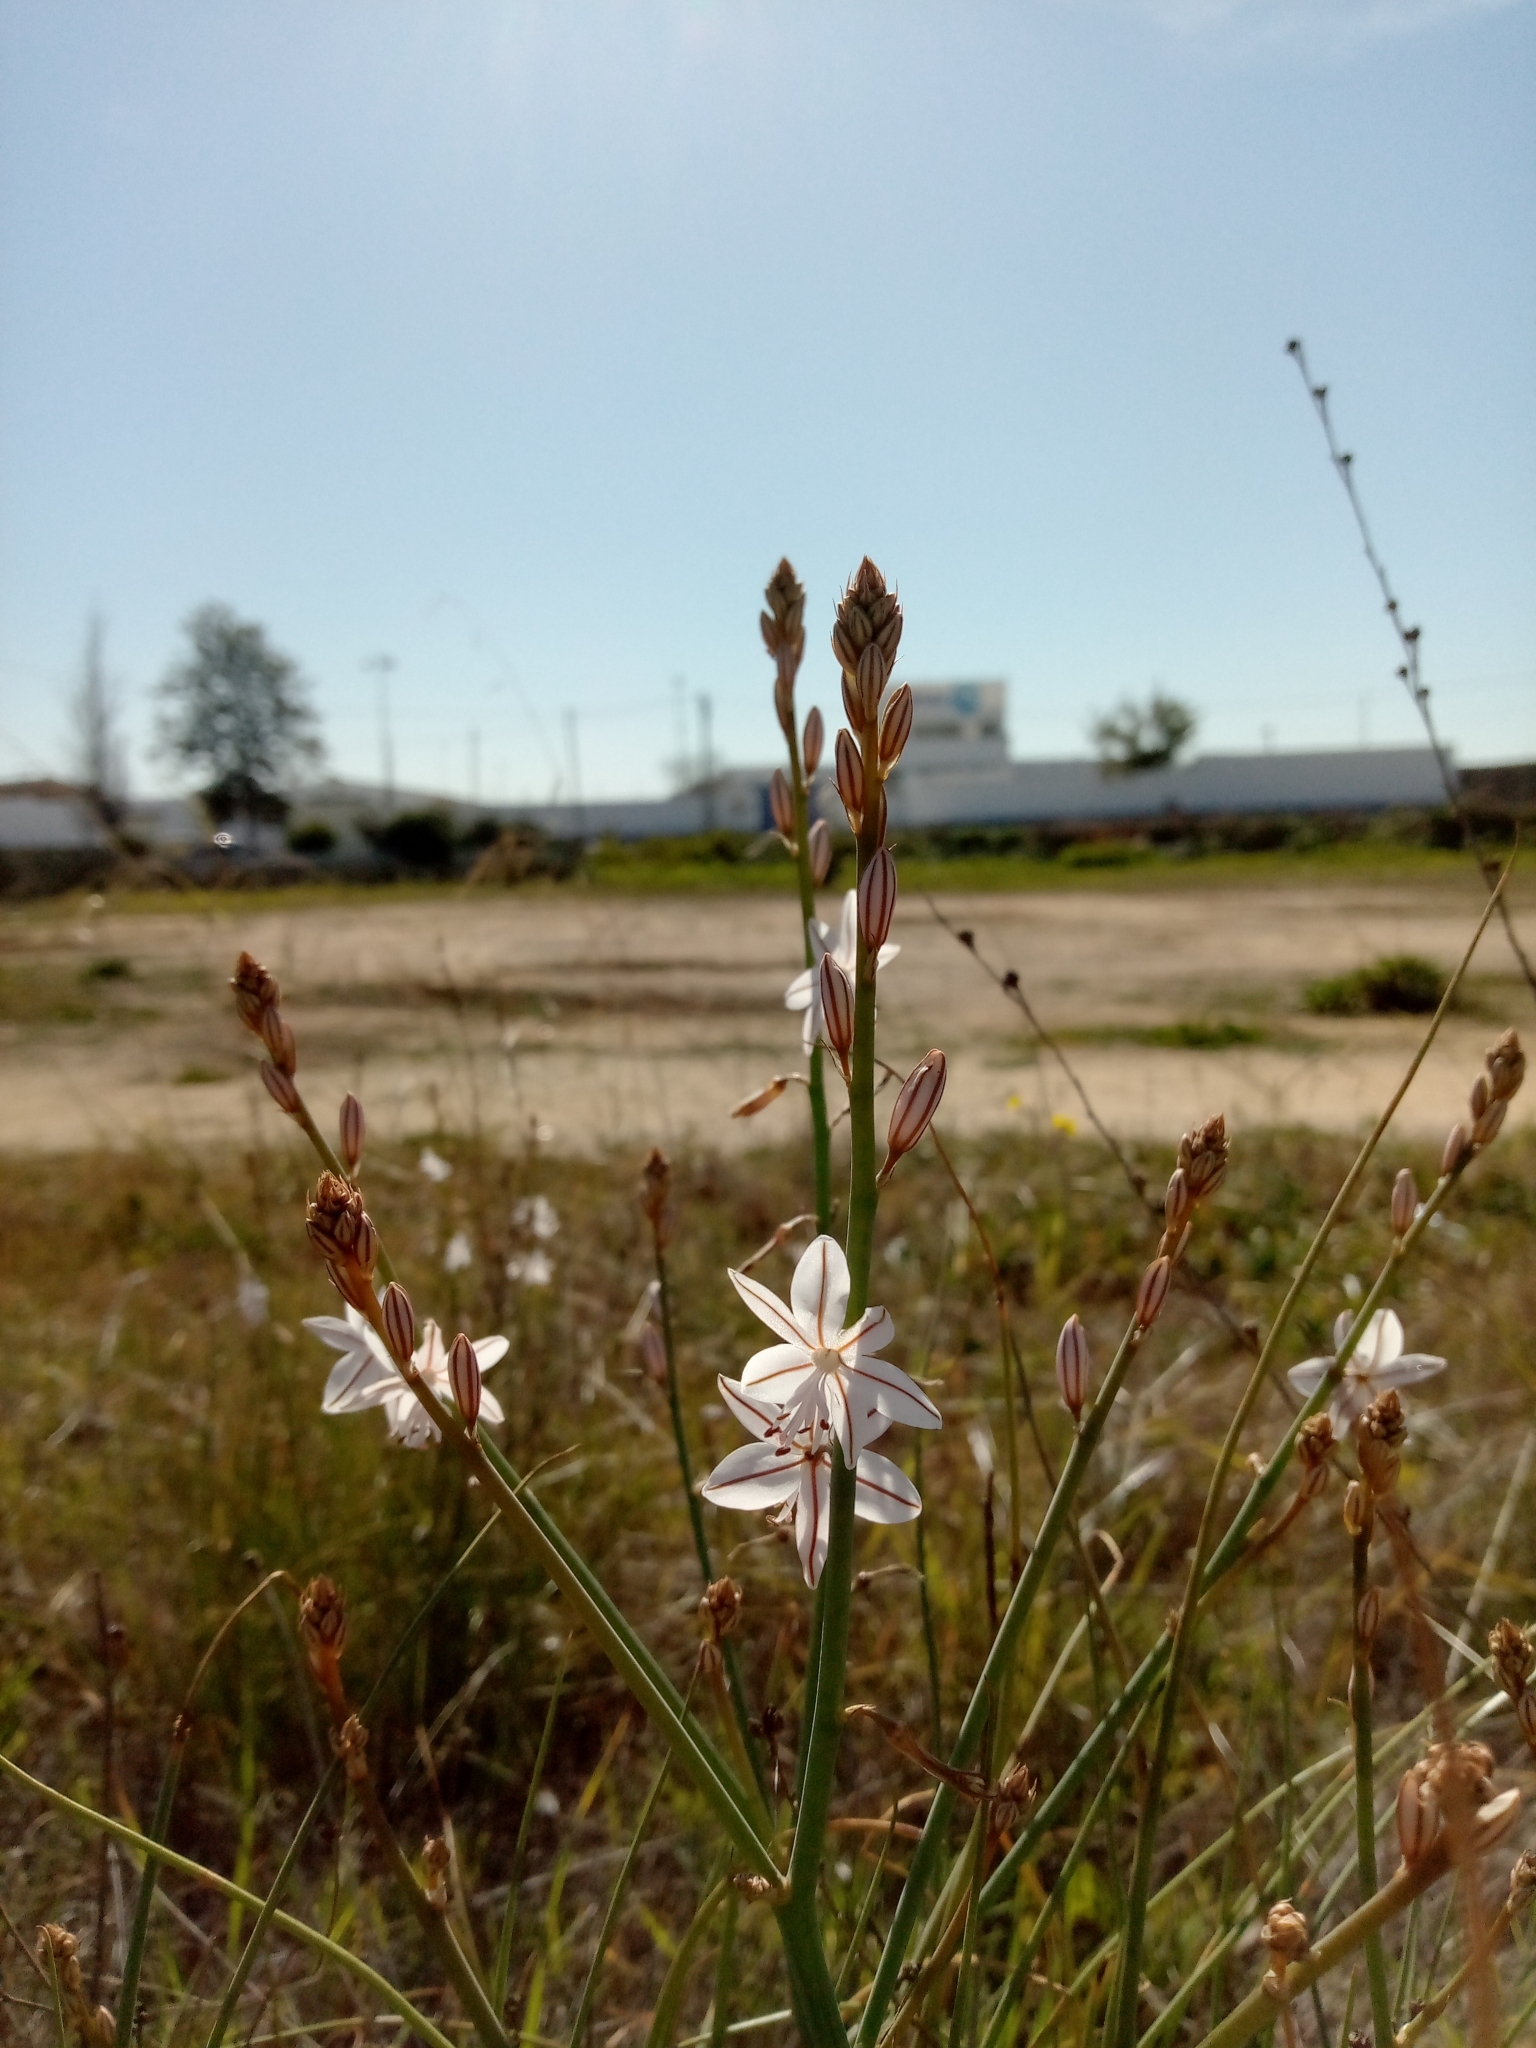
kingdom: Plantae
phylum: Tracheophyta
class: Liliopsida
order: Asparagales
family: Asphodelaceae
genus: Asphodelus
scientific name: Asphodelus fistulosus
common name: Onionweed
